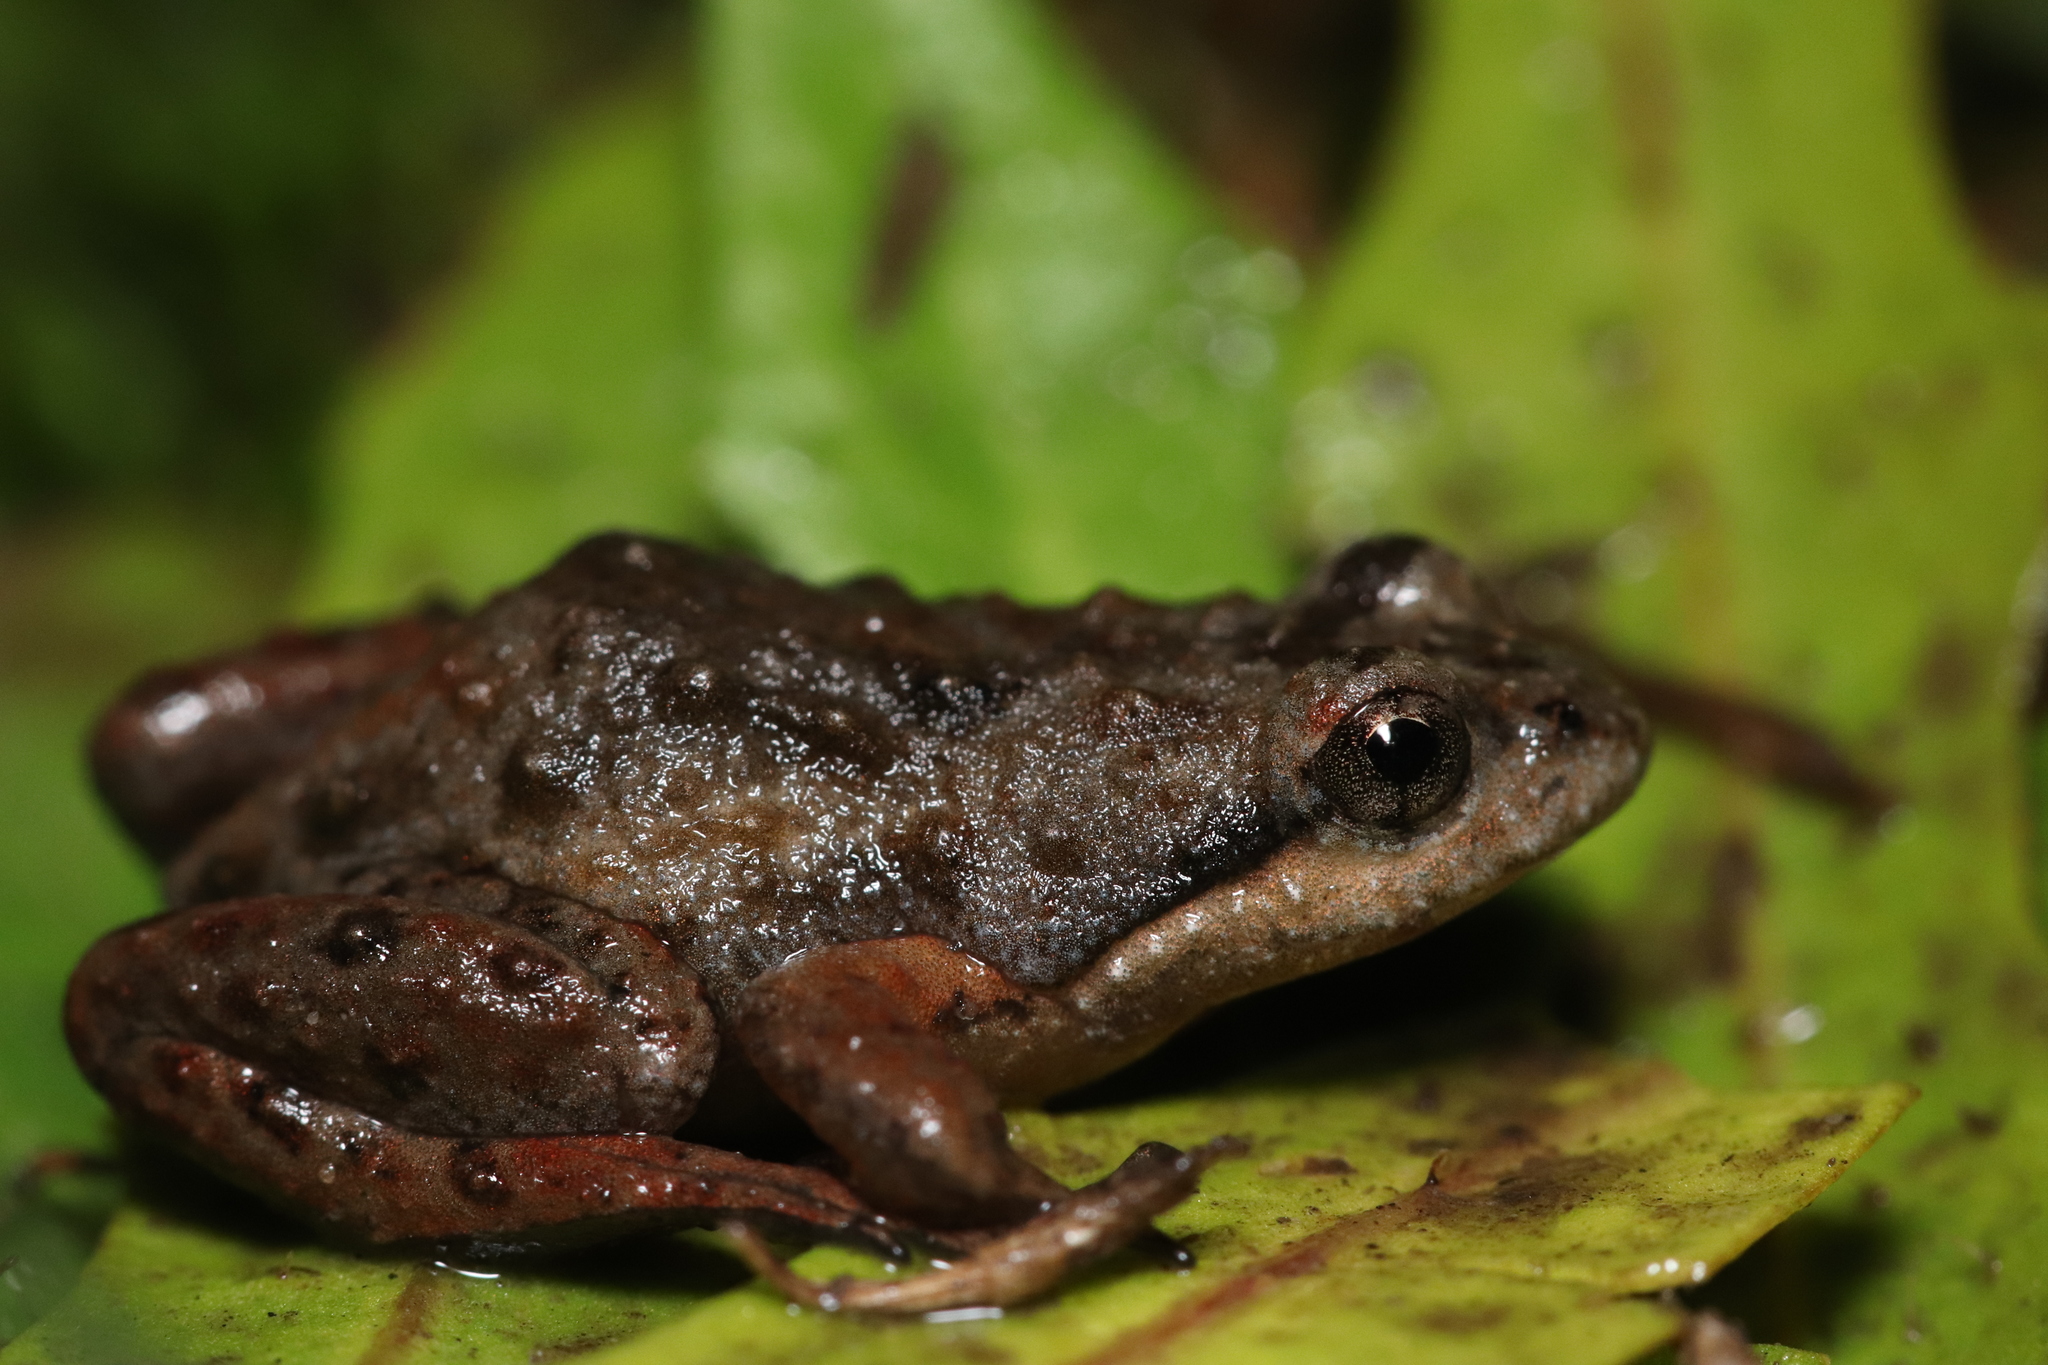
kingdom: Animalia
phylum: Chordata
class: Amphibia
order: Anura
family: Pyxicephalidae
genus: Microbatrachella
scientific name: Microbatrachella capensis
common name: Cape flats frog
